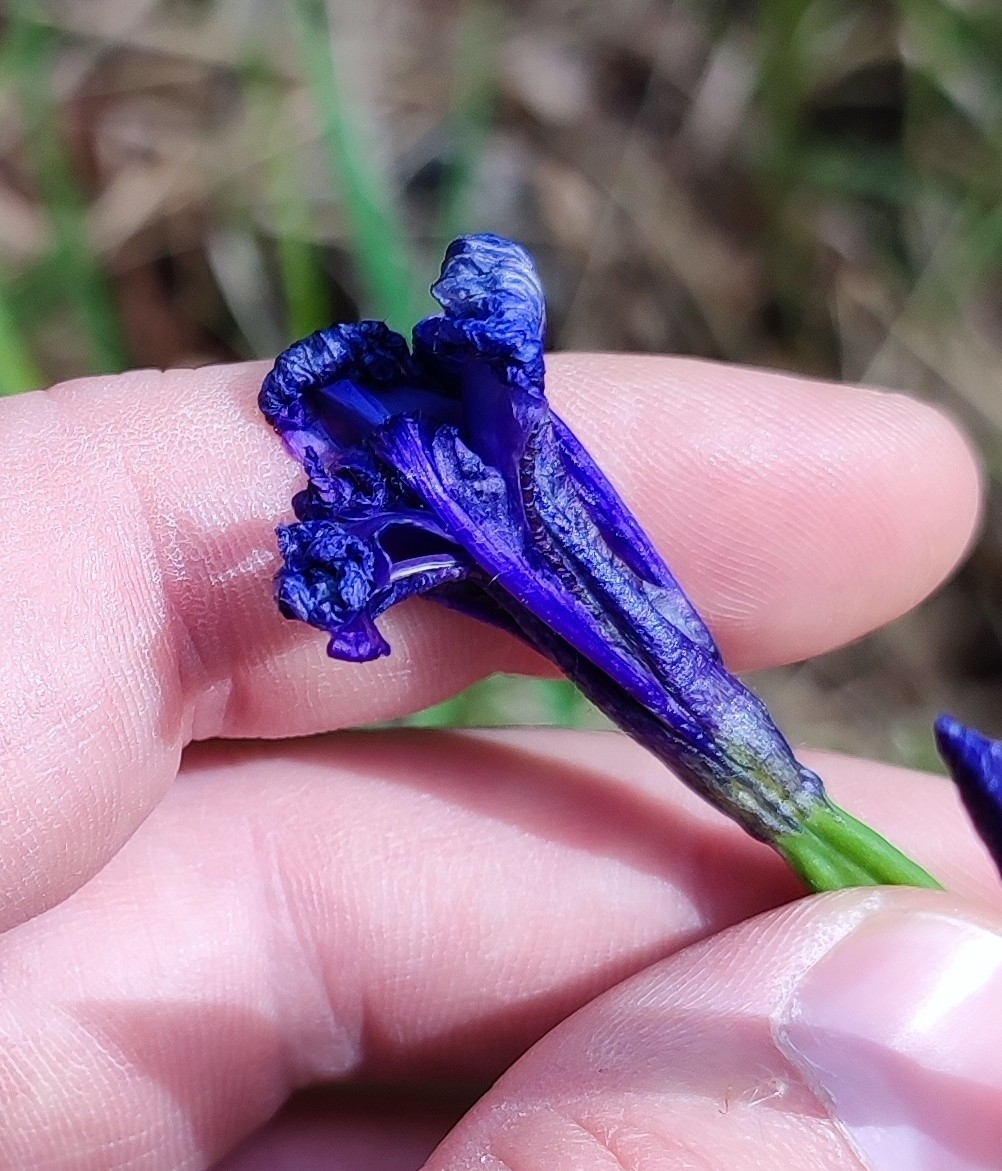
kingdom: Plantae
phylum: Tracheophyta
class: Liliopsida
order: Asparagales
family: Iridaceae
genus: Iris
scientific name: Iris sibirica
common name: Siberian iris
